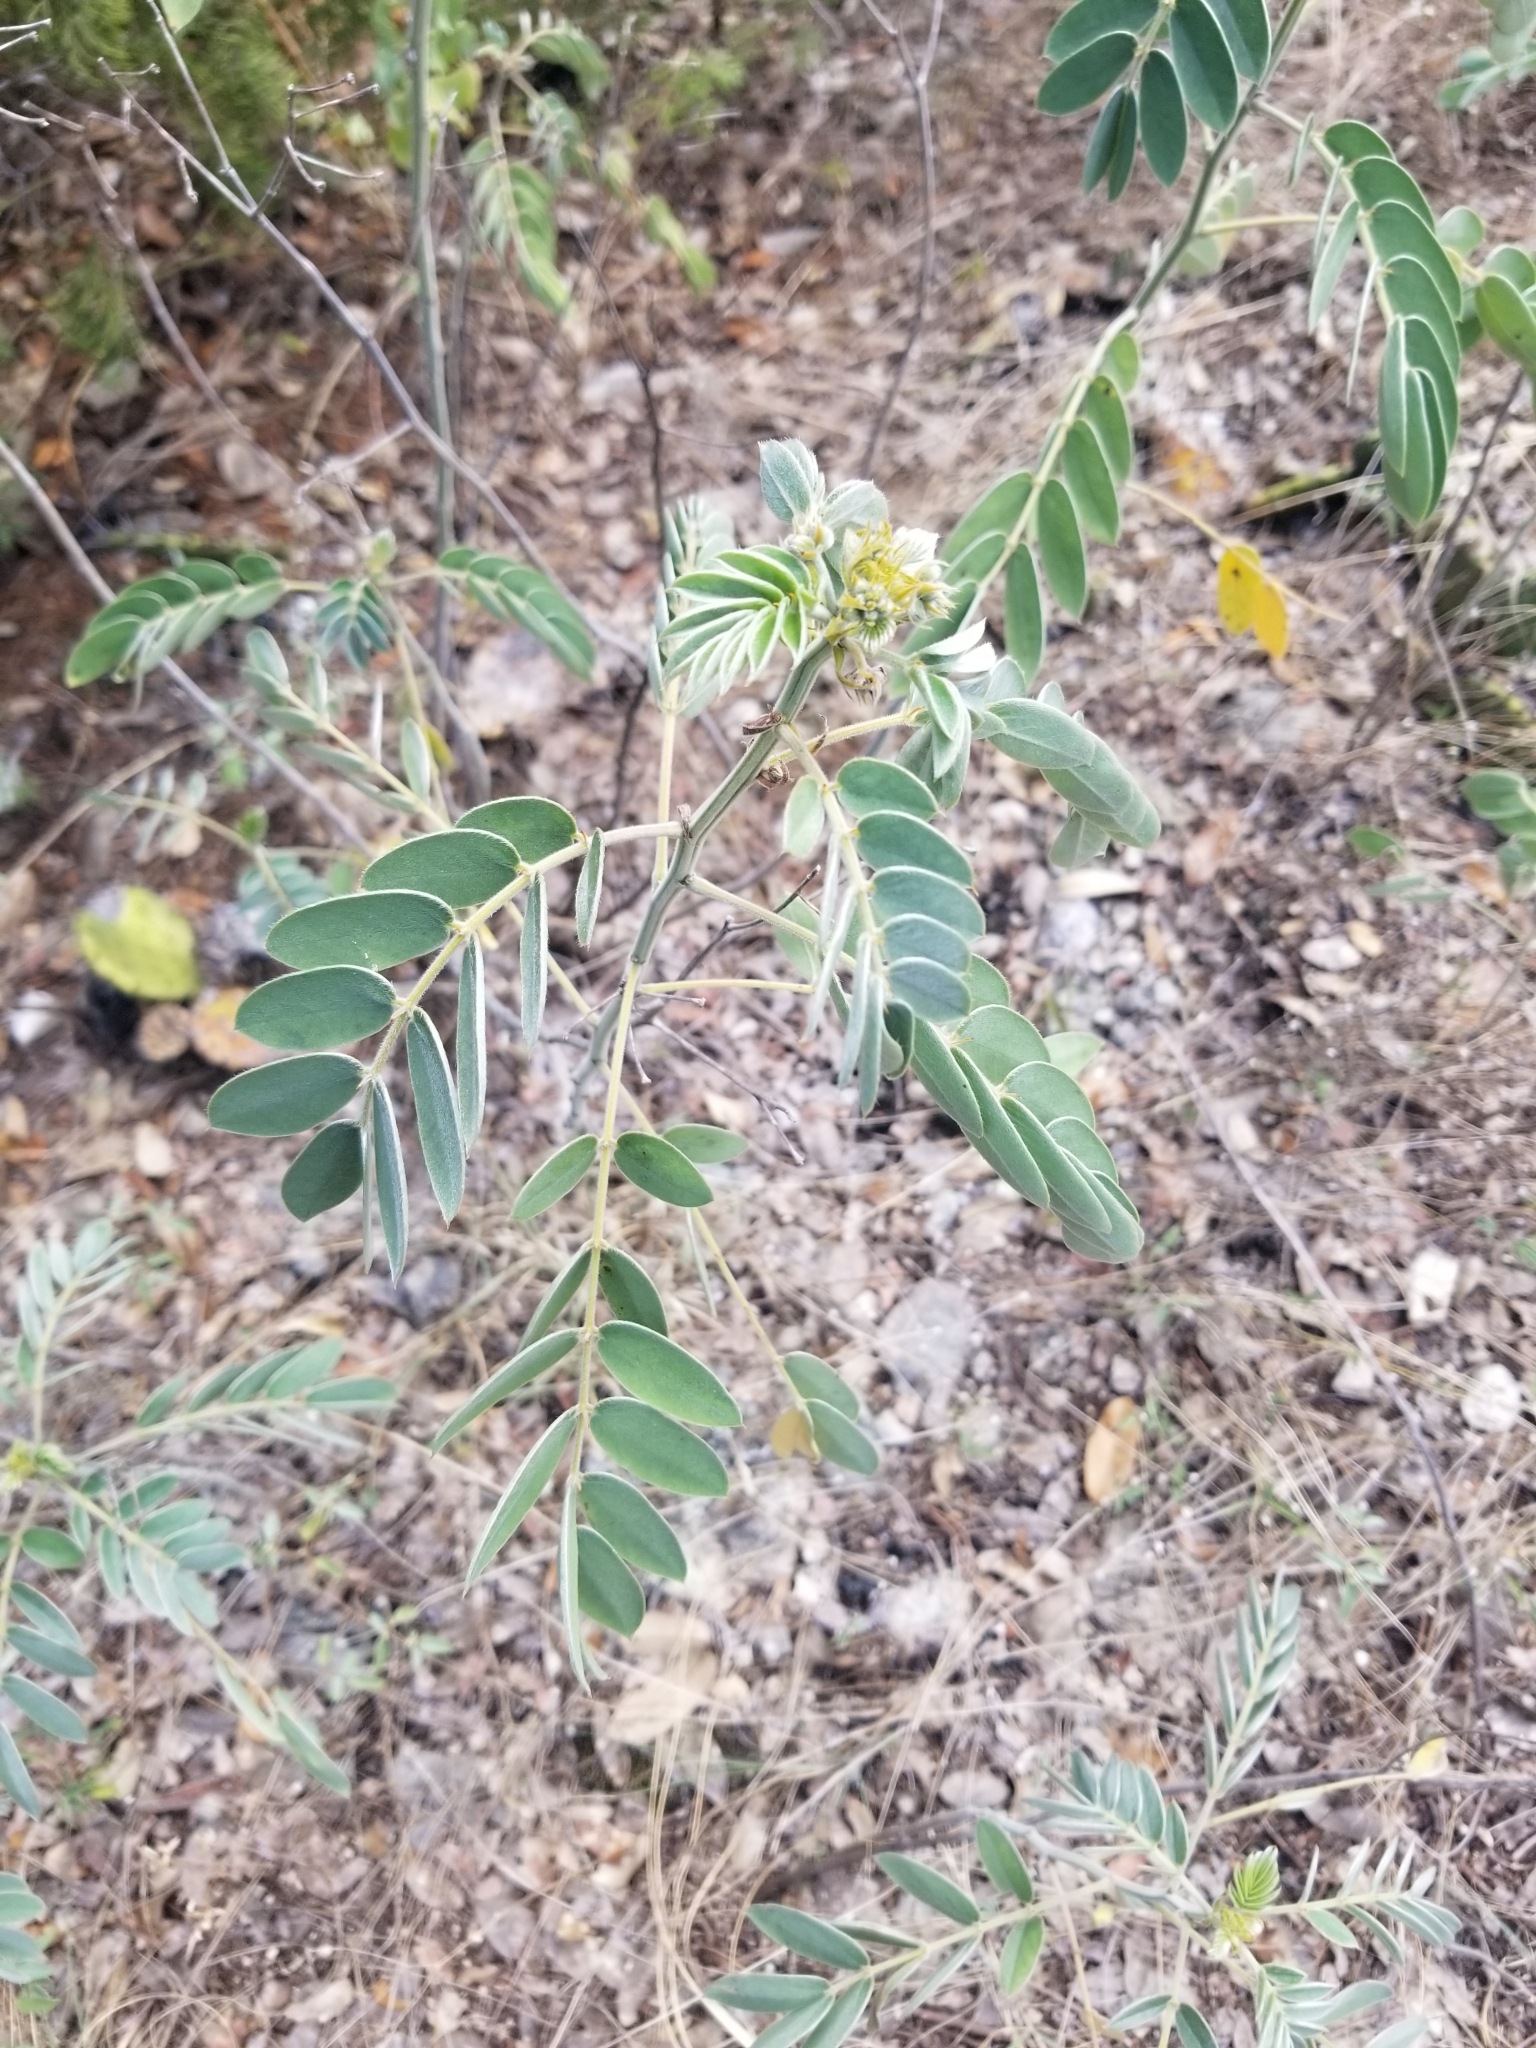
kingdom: Plantae
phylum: Tracheophyta
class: Magnoliopsida
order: Fabales
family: Fabaceae
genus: Senna
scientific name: Senna lindheimeriana
